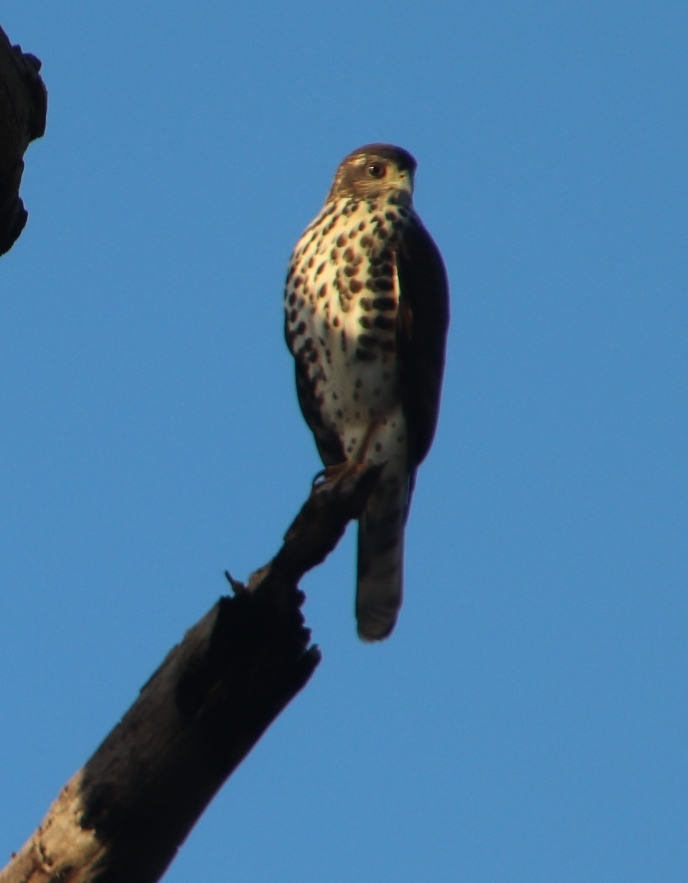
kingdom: Animalia
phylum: Chordata
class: Aves
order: Accipitriformes
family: Accipitridae
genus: Accipiter
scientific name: Accipiter tachiro
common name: African goshawk
